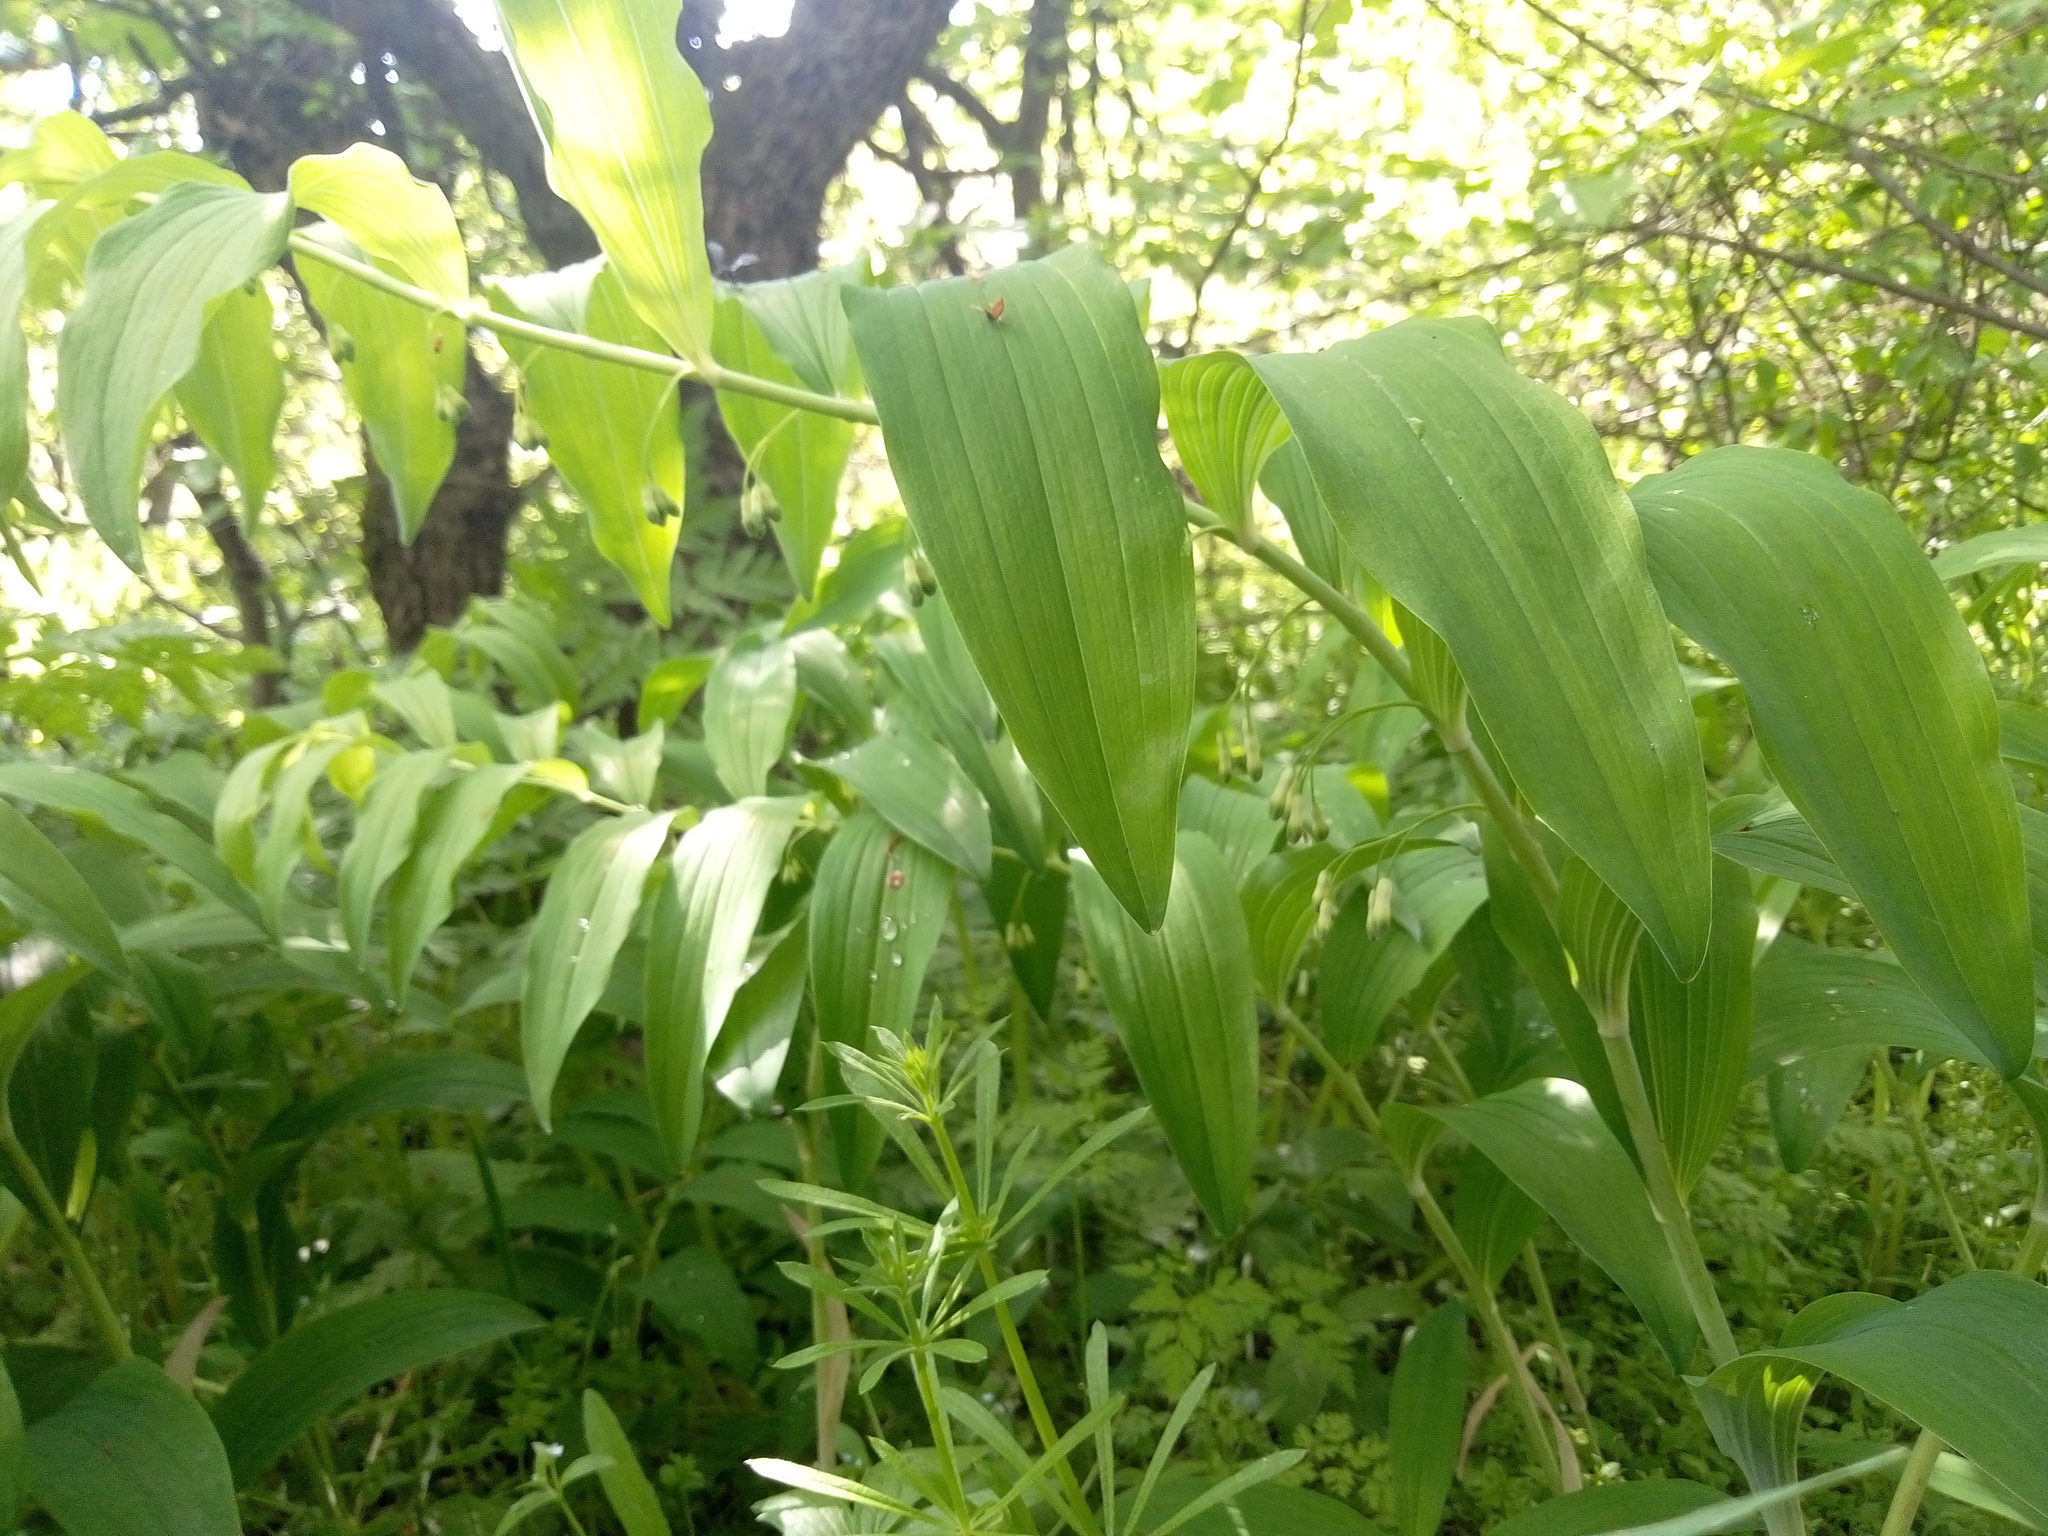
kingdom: Plantae
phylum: Tracheophyta
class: Liliopsida
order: Asparagales
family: Asparagaceae
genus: Polygonatum
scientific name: Polygonatum multiflorum
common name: Solomon's-seal
